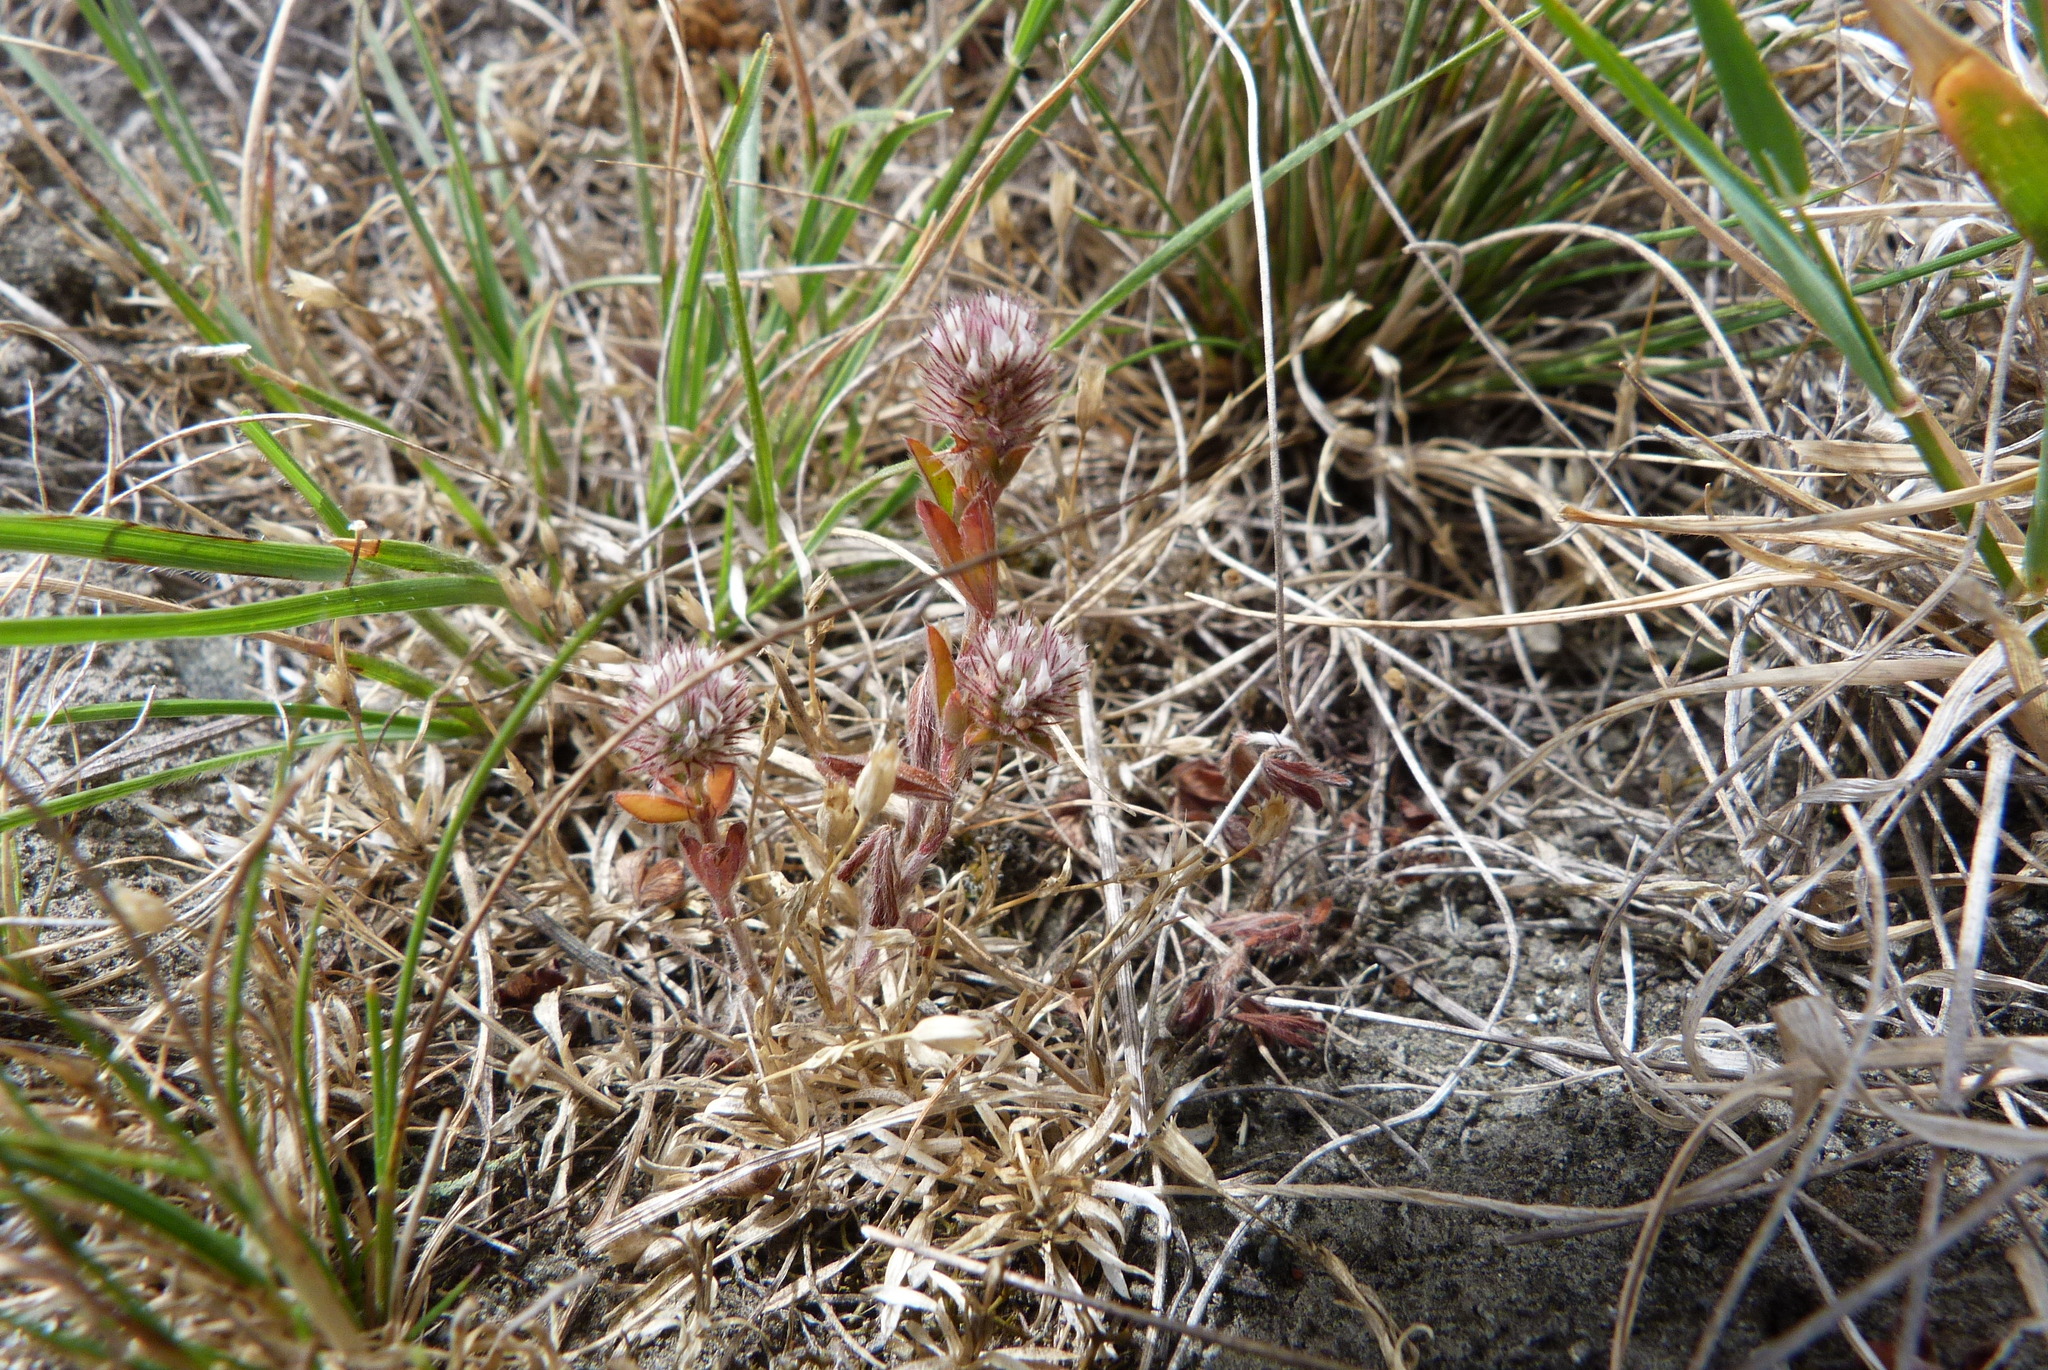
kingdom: Plantae
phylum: Tracheophyta
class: Magnoliopsida
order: Fabales
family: Fabaceae
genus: Trifolium
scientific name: Trifolium arvense
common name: Hare's-foot clover
